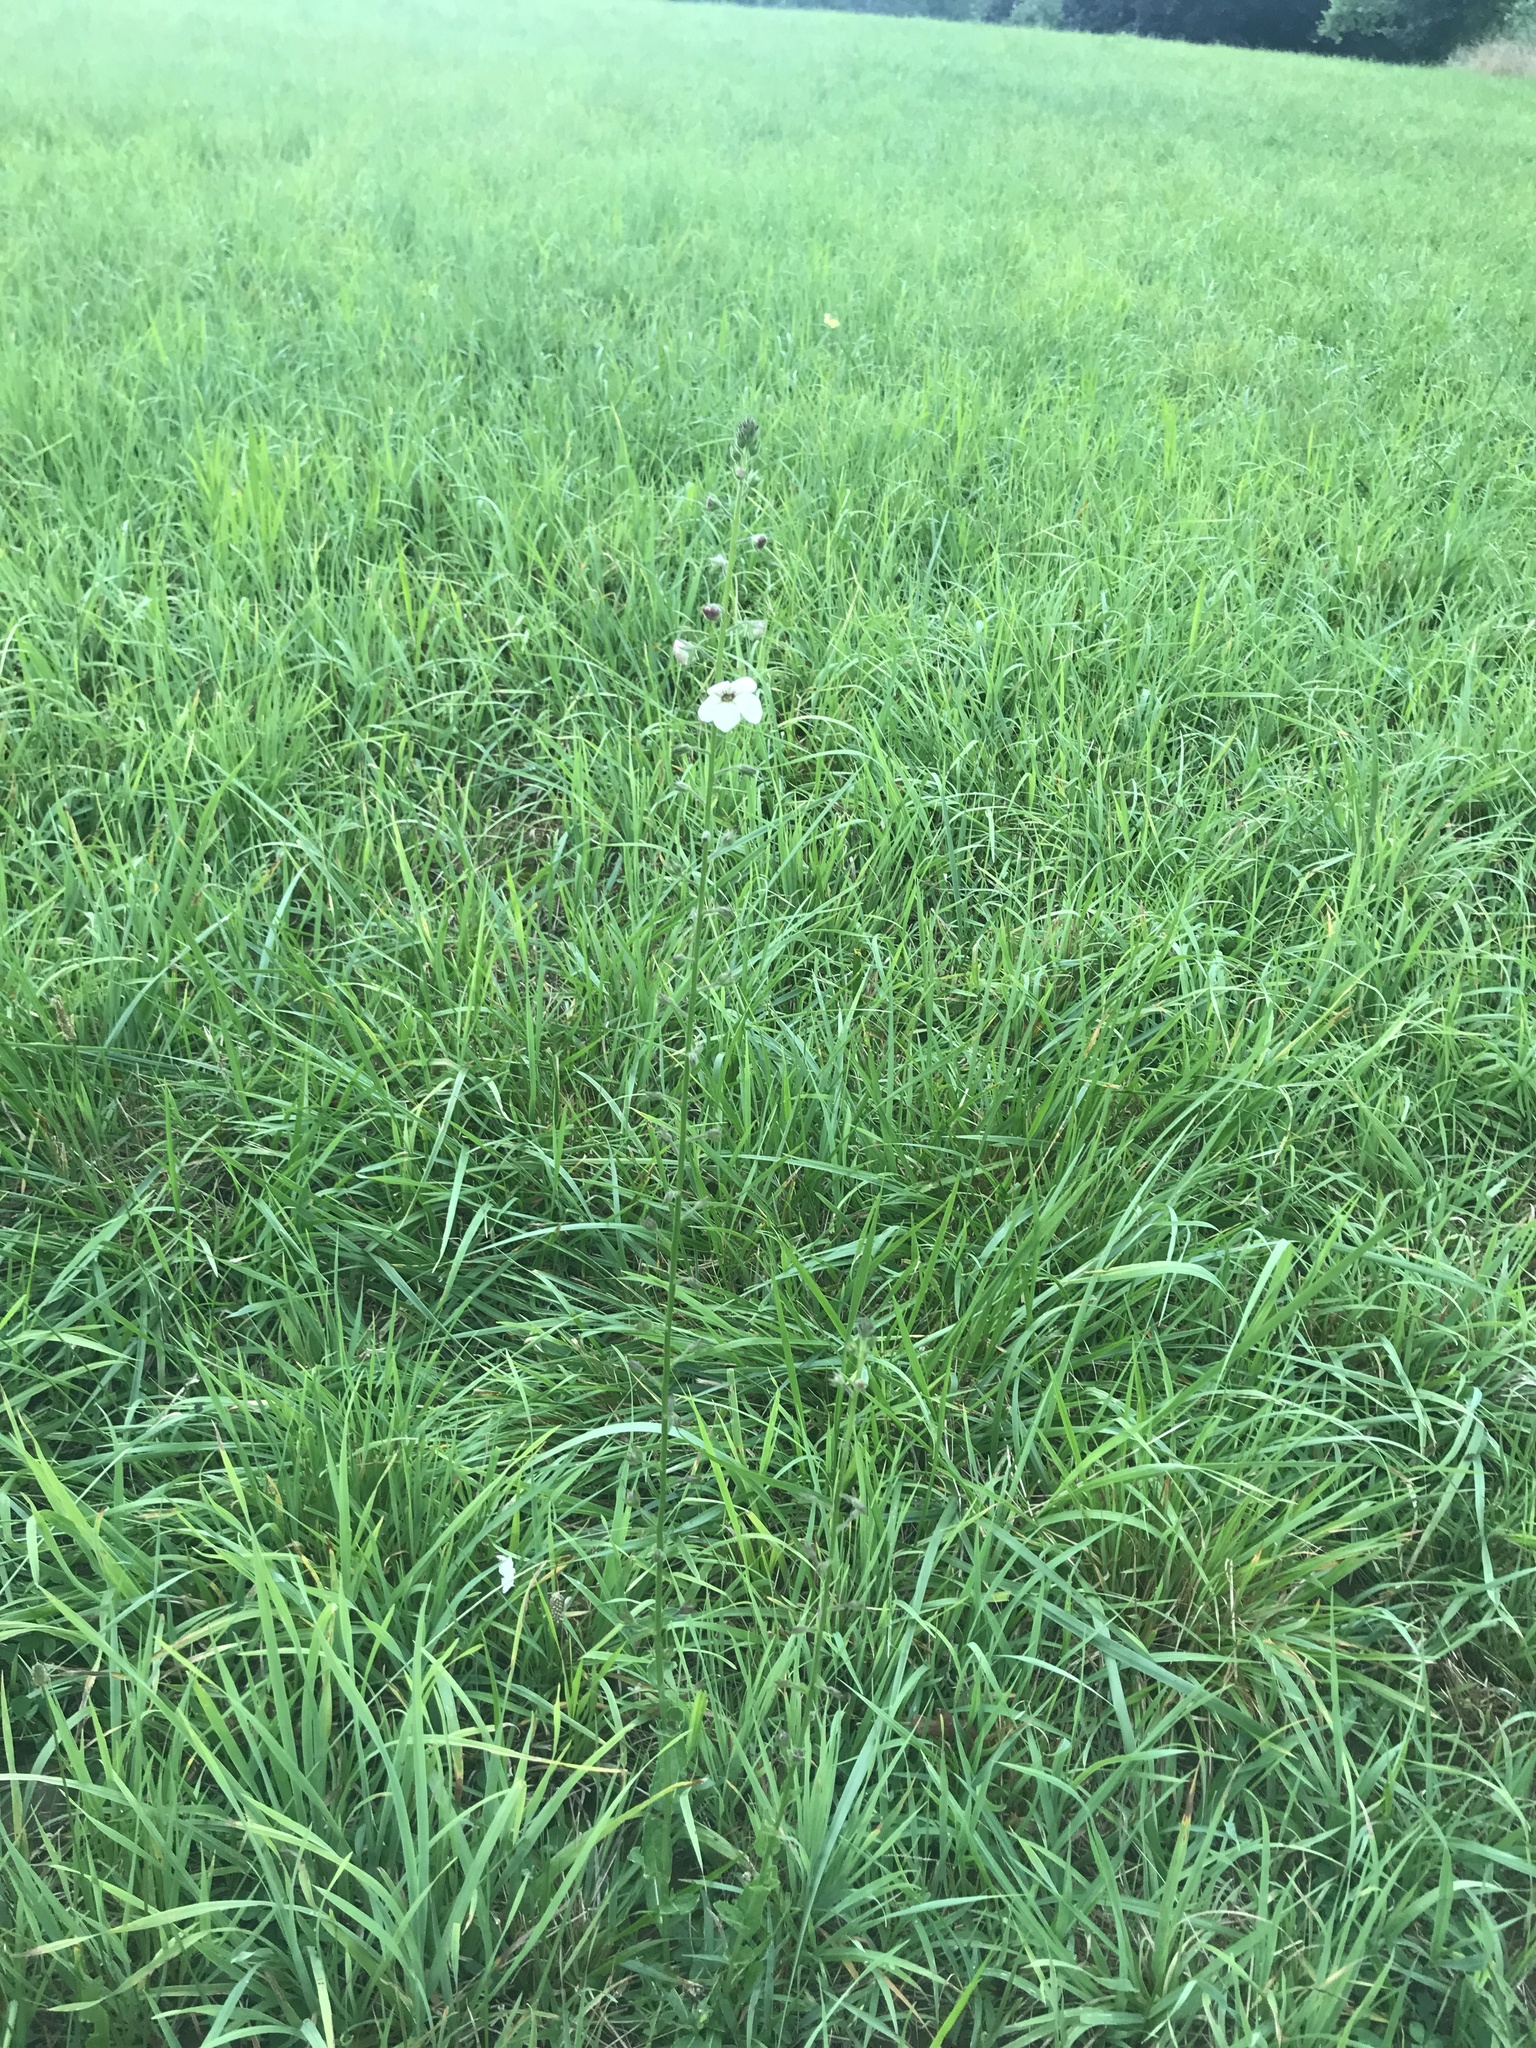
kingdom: Plantae
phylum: Tracheophyta
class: Magnoliopsida
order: Lamiales
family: Scrophulariaceae
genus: Verbascum
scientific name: Verbascum blattaria
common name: Moth mullein
